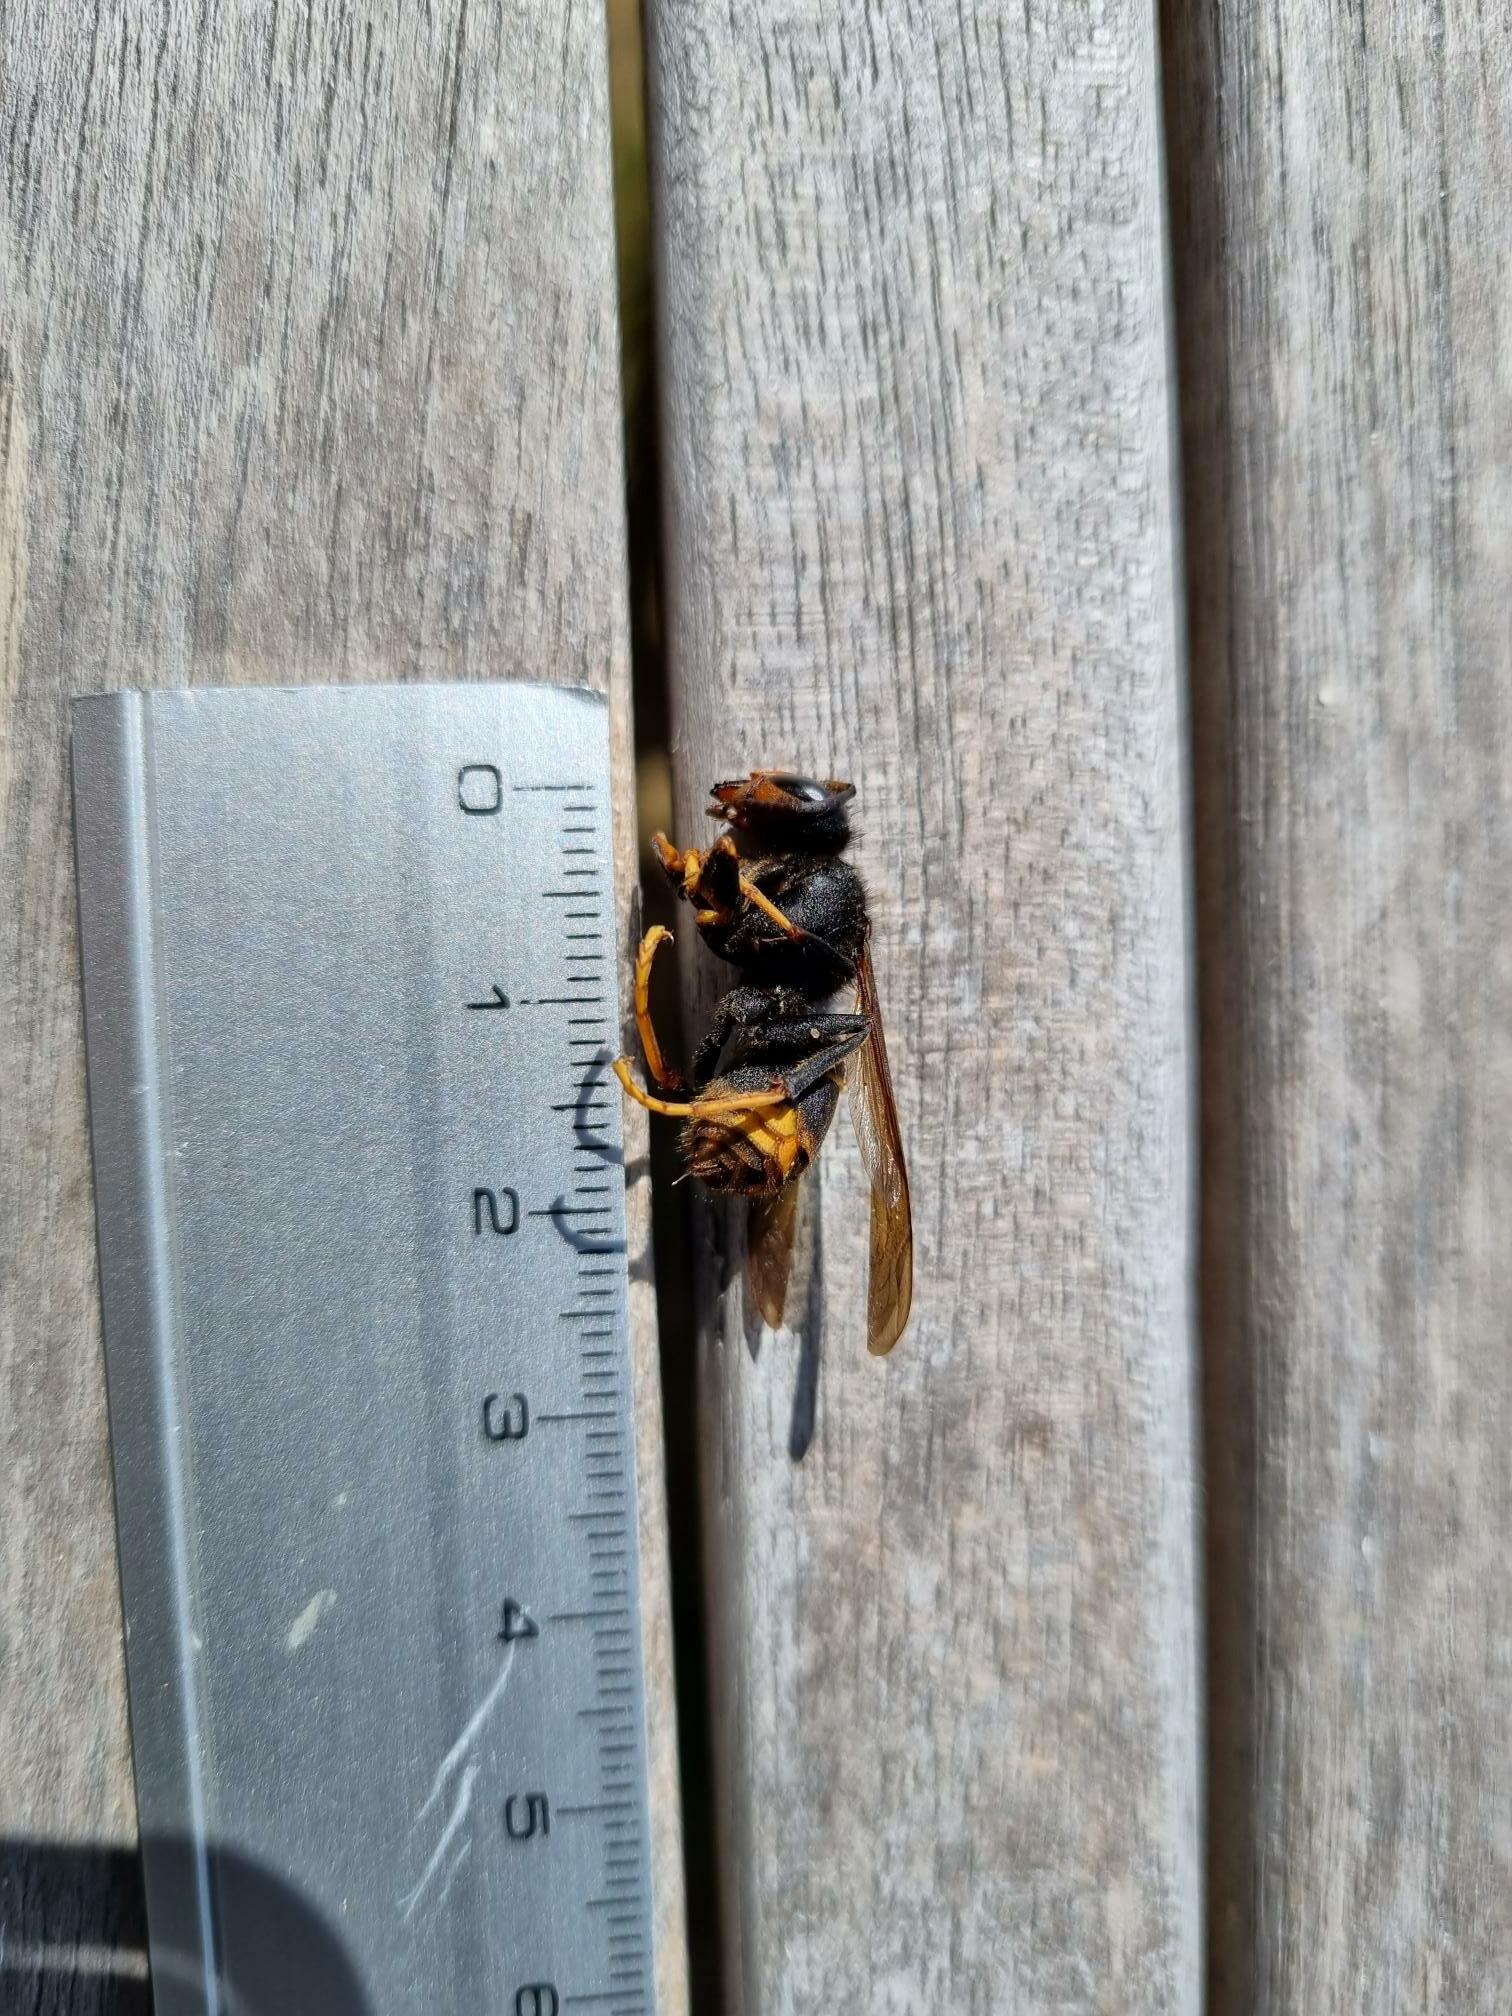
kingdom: Animalia
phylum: Arthropoda
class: Insecta
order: Hymenoptera
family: Vespidae
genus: Vespa
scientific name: Vespa velutina
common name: Asian hornet
